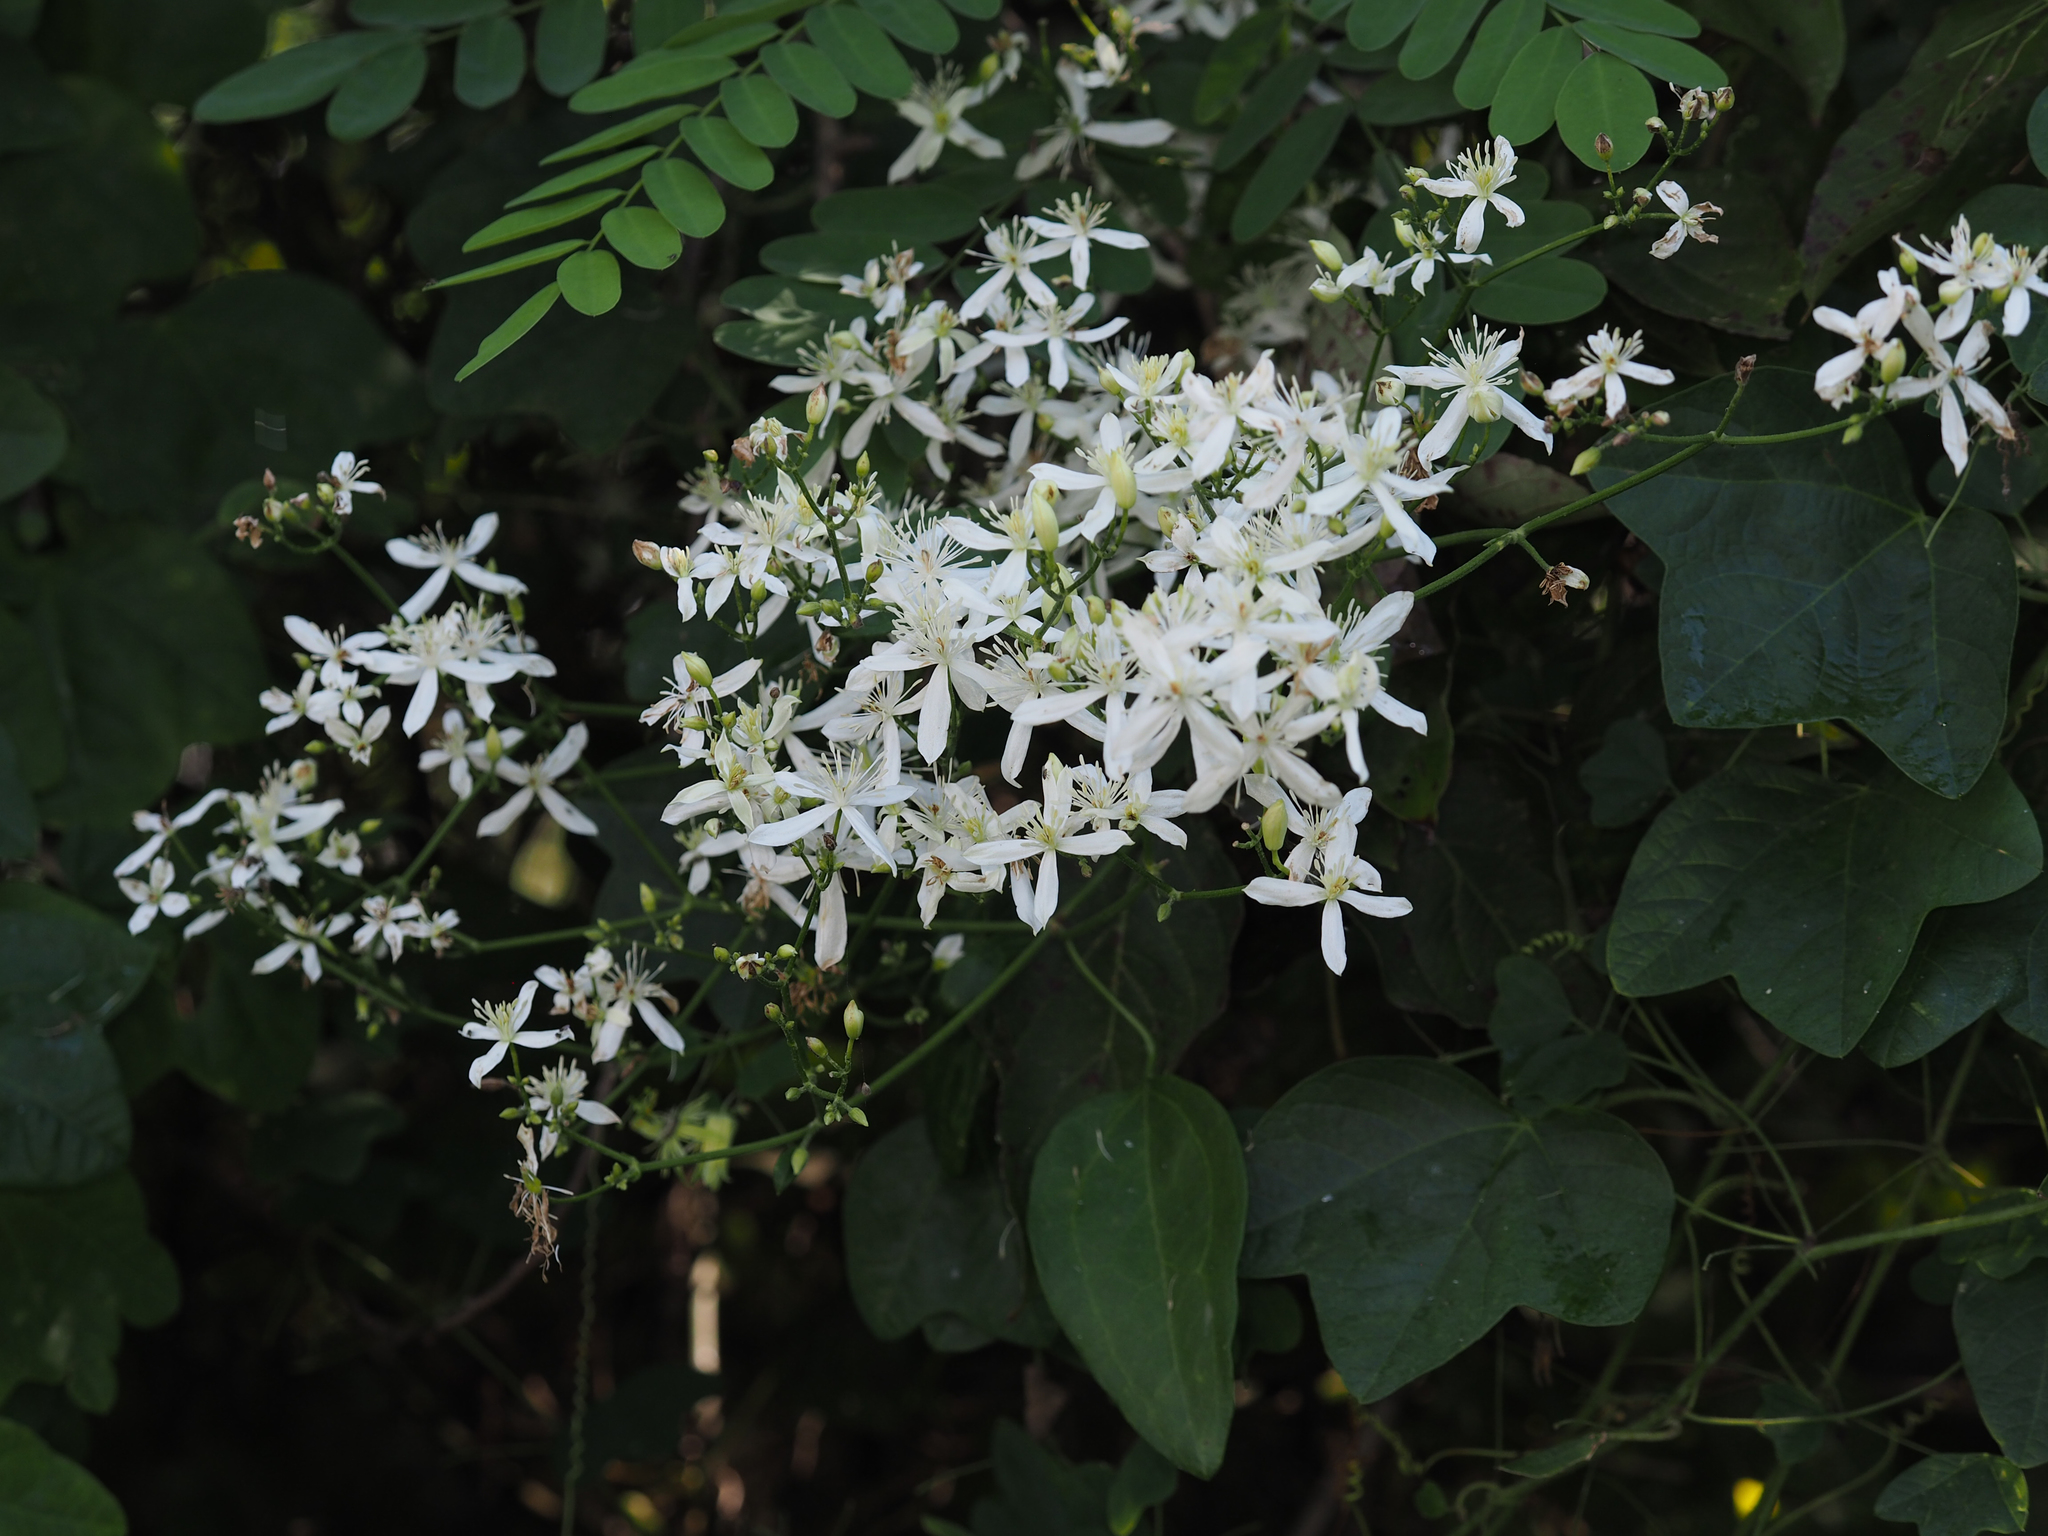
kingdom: Plantae
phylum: Tracheophyta
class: Magnoliopsida
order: Ranunculales
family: Ranunculaceae
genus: Clematis
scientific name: Clematis terniflora
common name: Sweet autumn clematis
